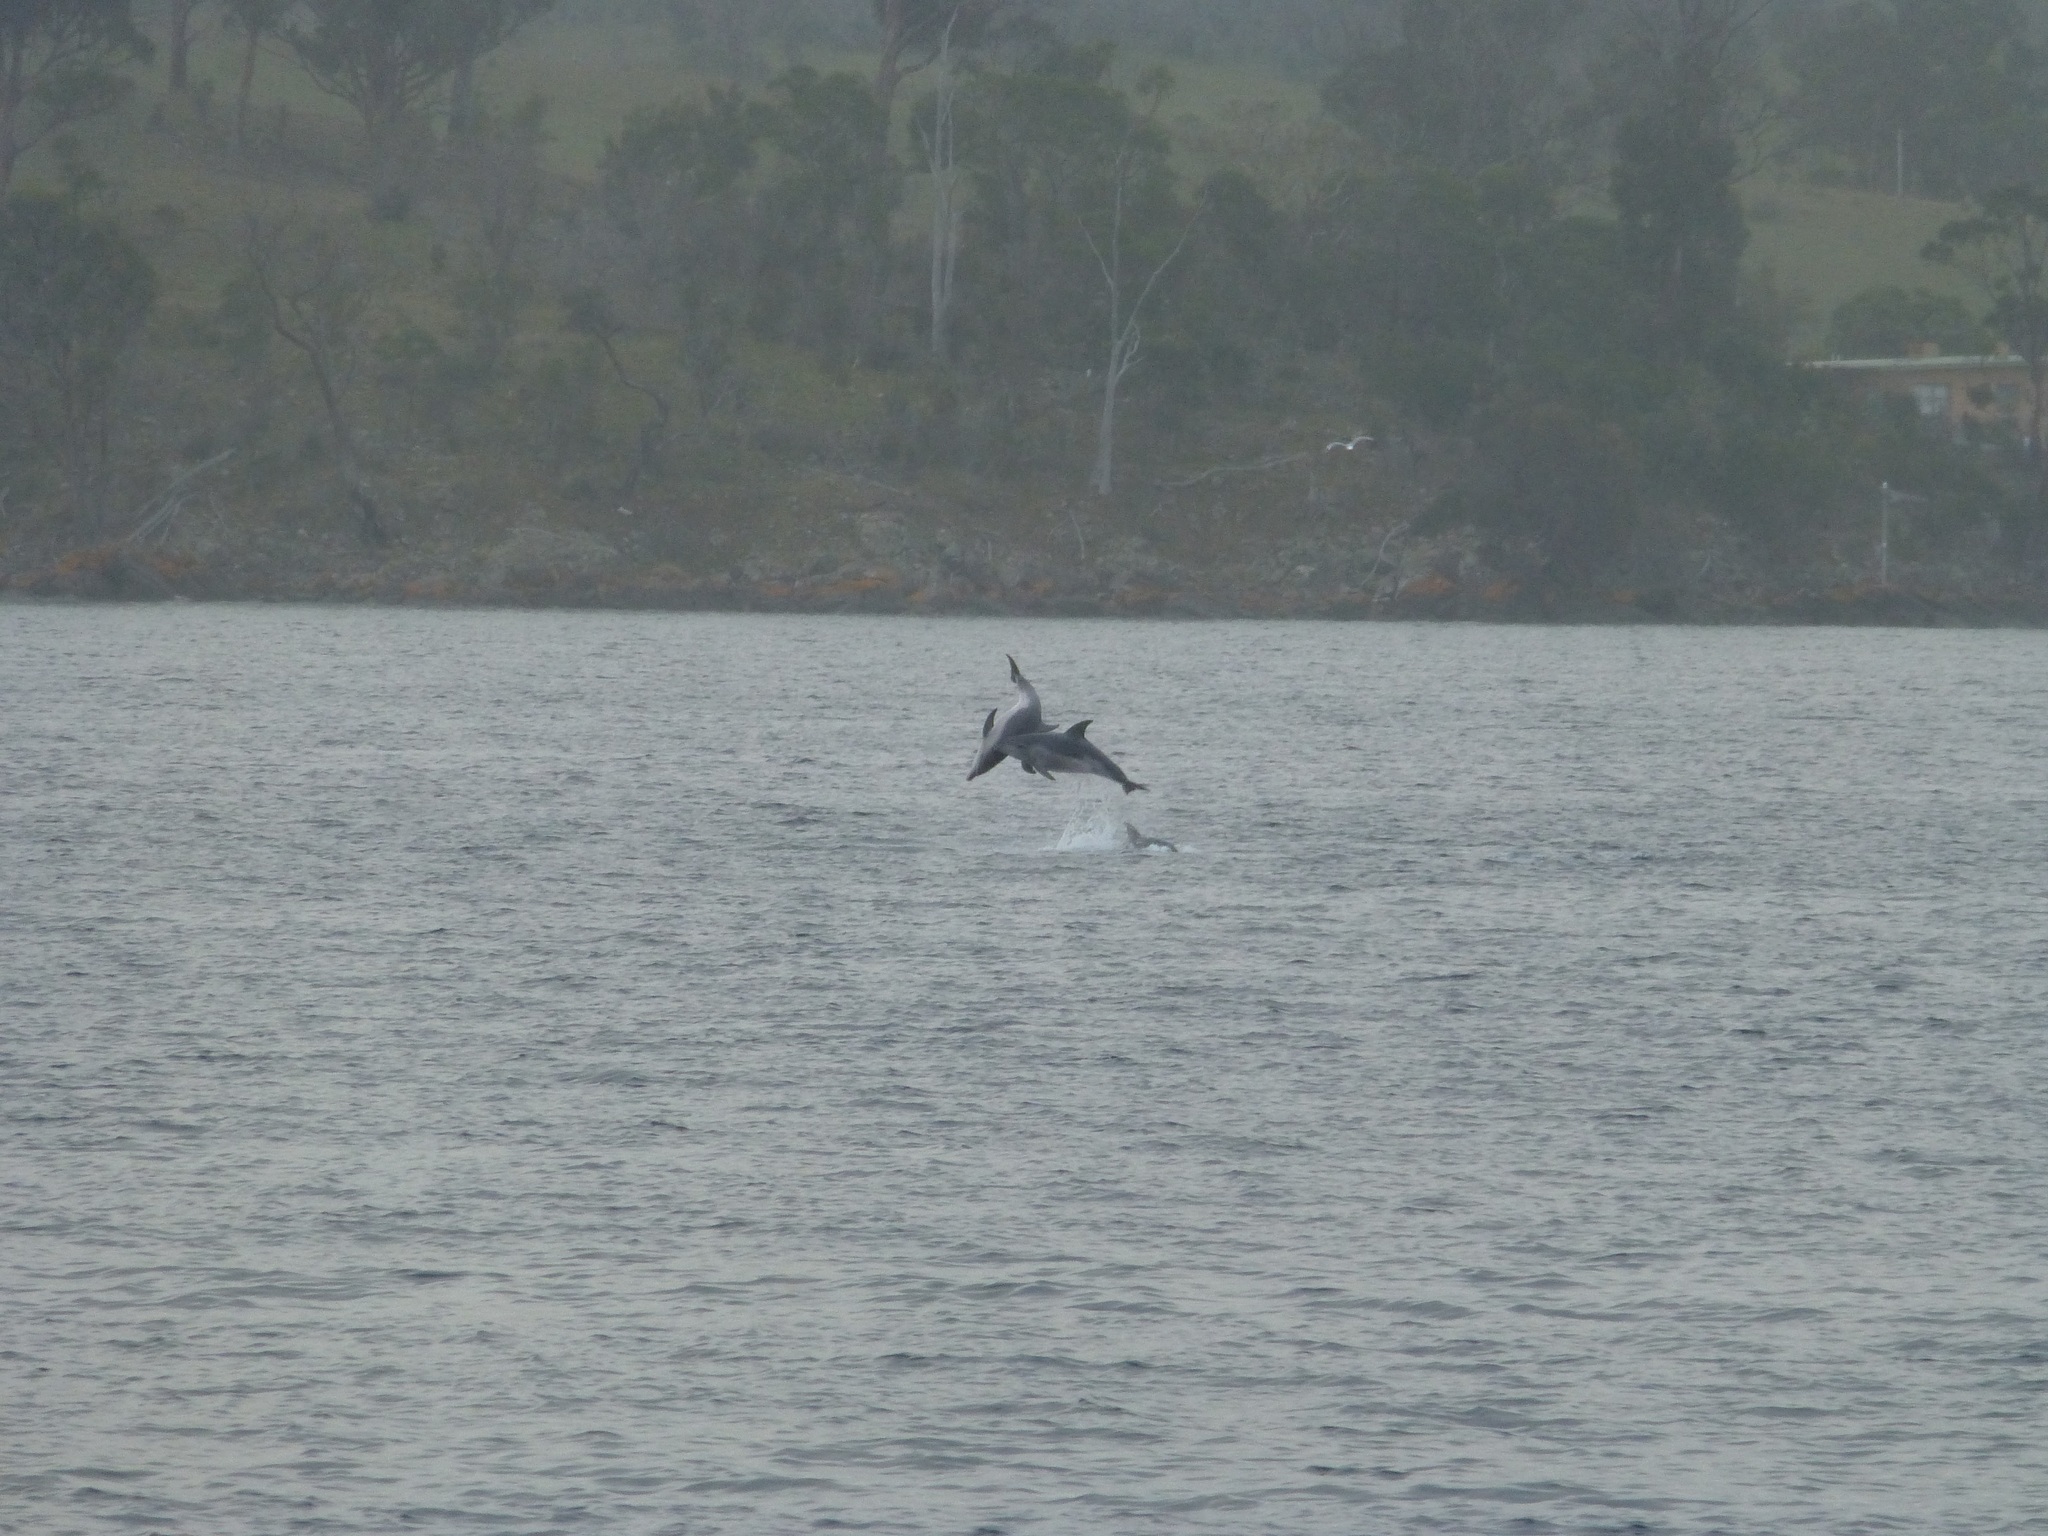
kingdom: Animalia
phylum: Chordata
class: Mammalia
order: Cetacea
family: Delphinidae
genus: Tursiops
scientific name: Tursiops truncatus
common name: Bottlenose dolphin
